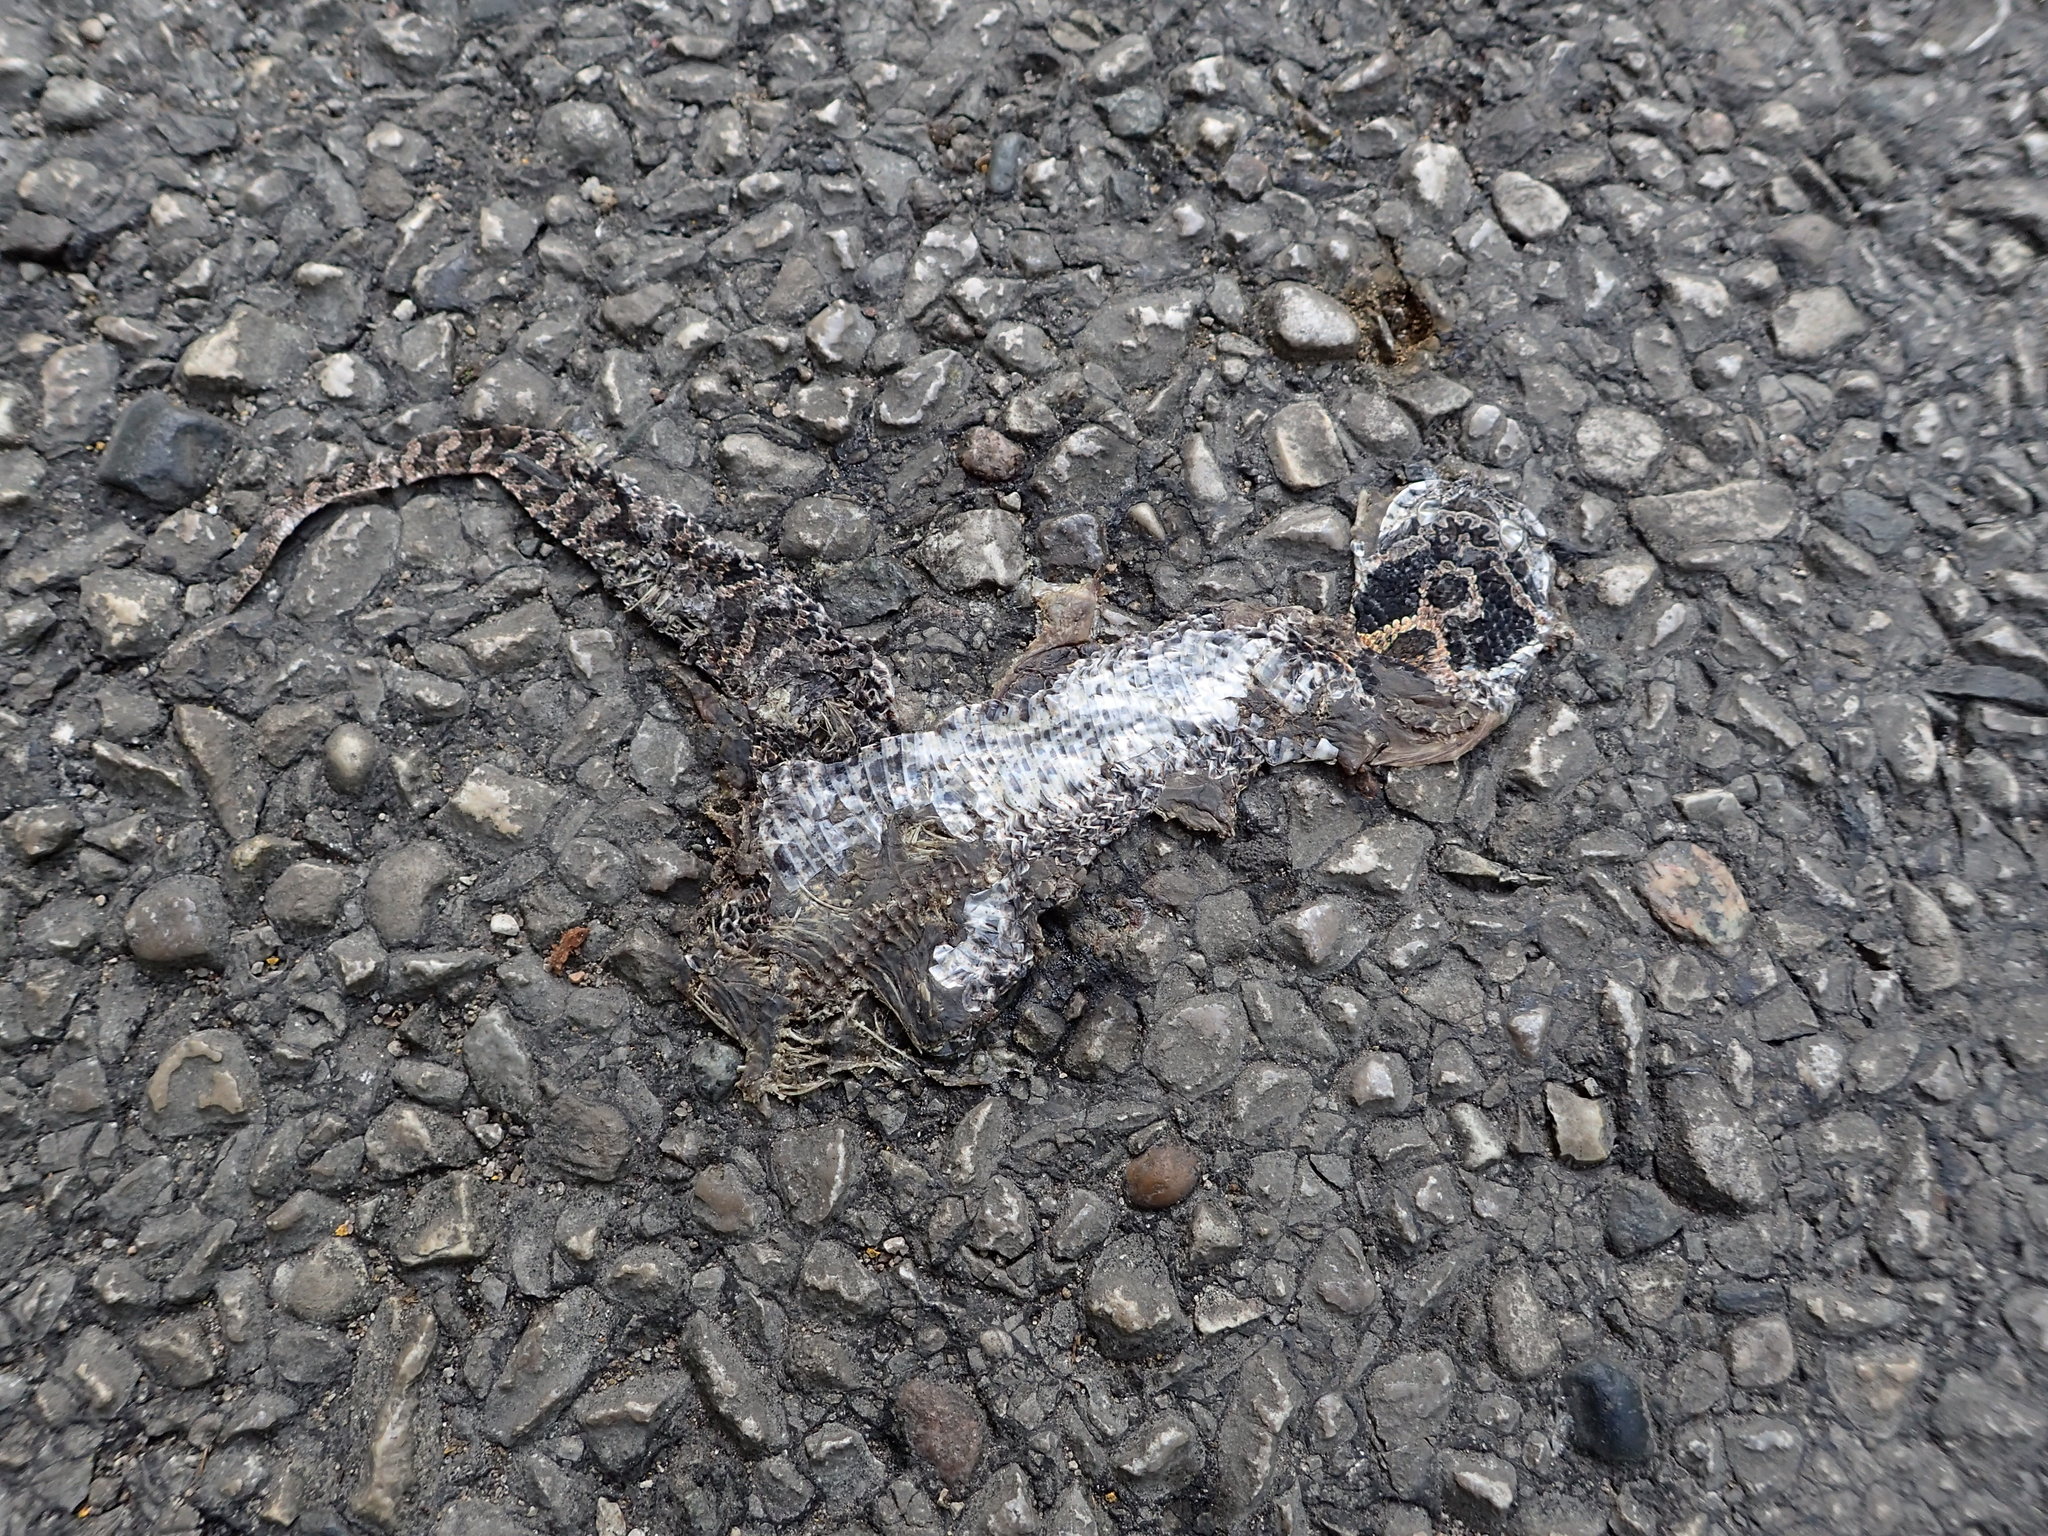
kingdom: Animalia
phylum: Chordata
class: Squamata
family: Colubridae
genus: Heterodon
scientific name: Heterodon platirhinos
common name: Eastern hognose snake
